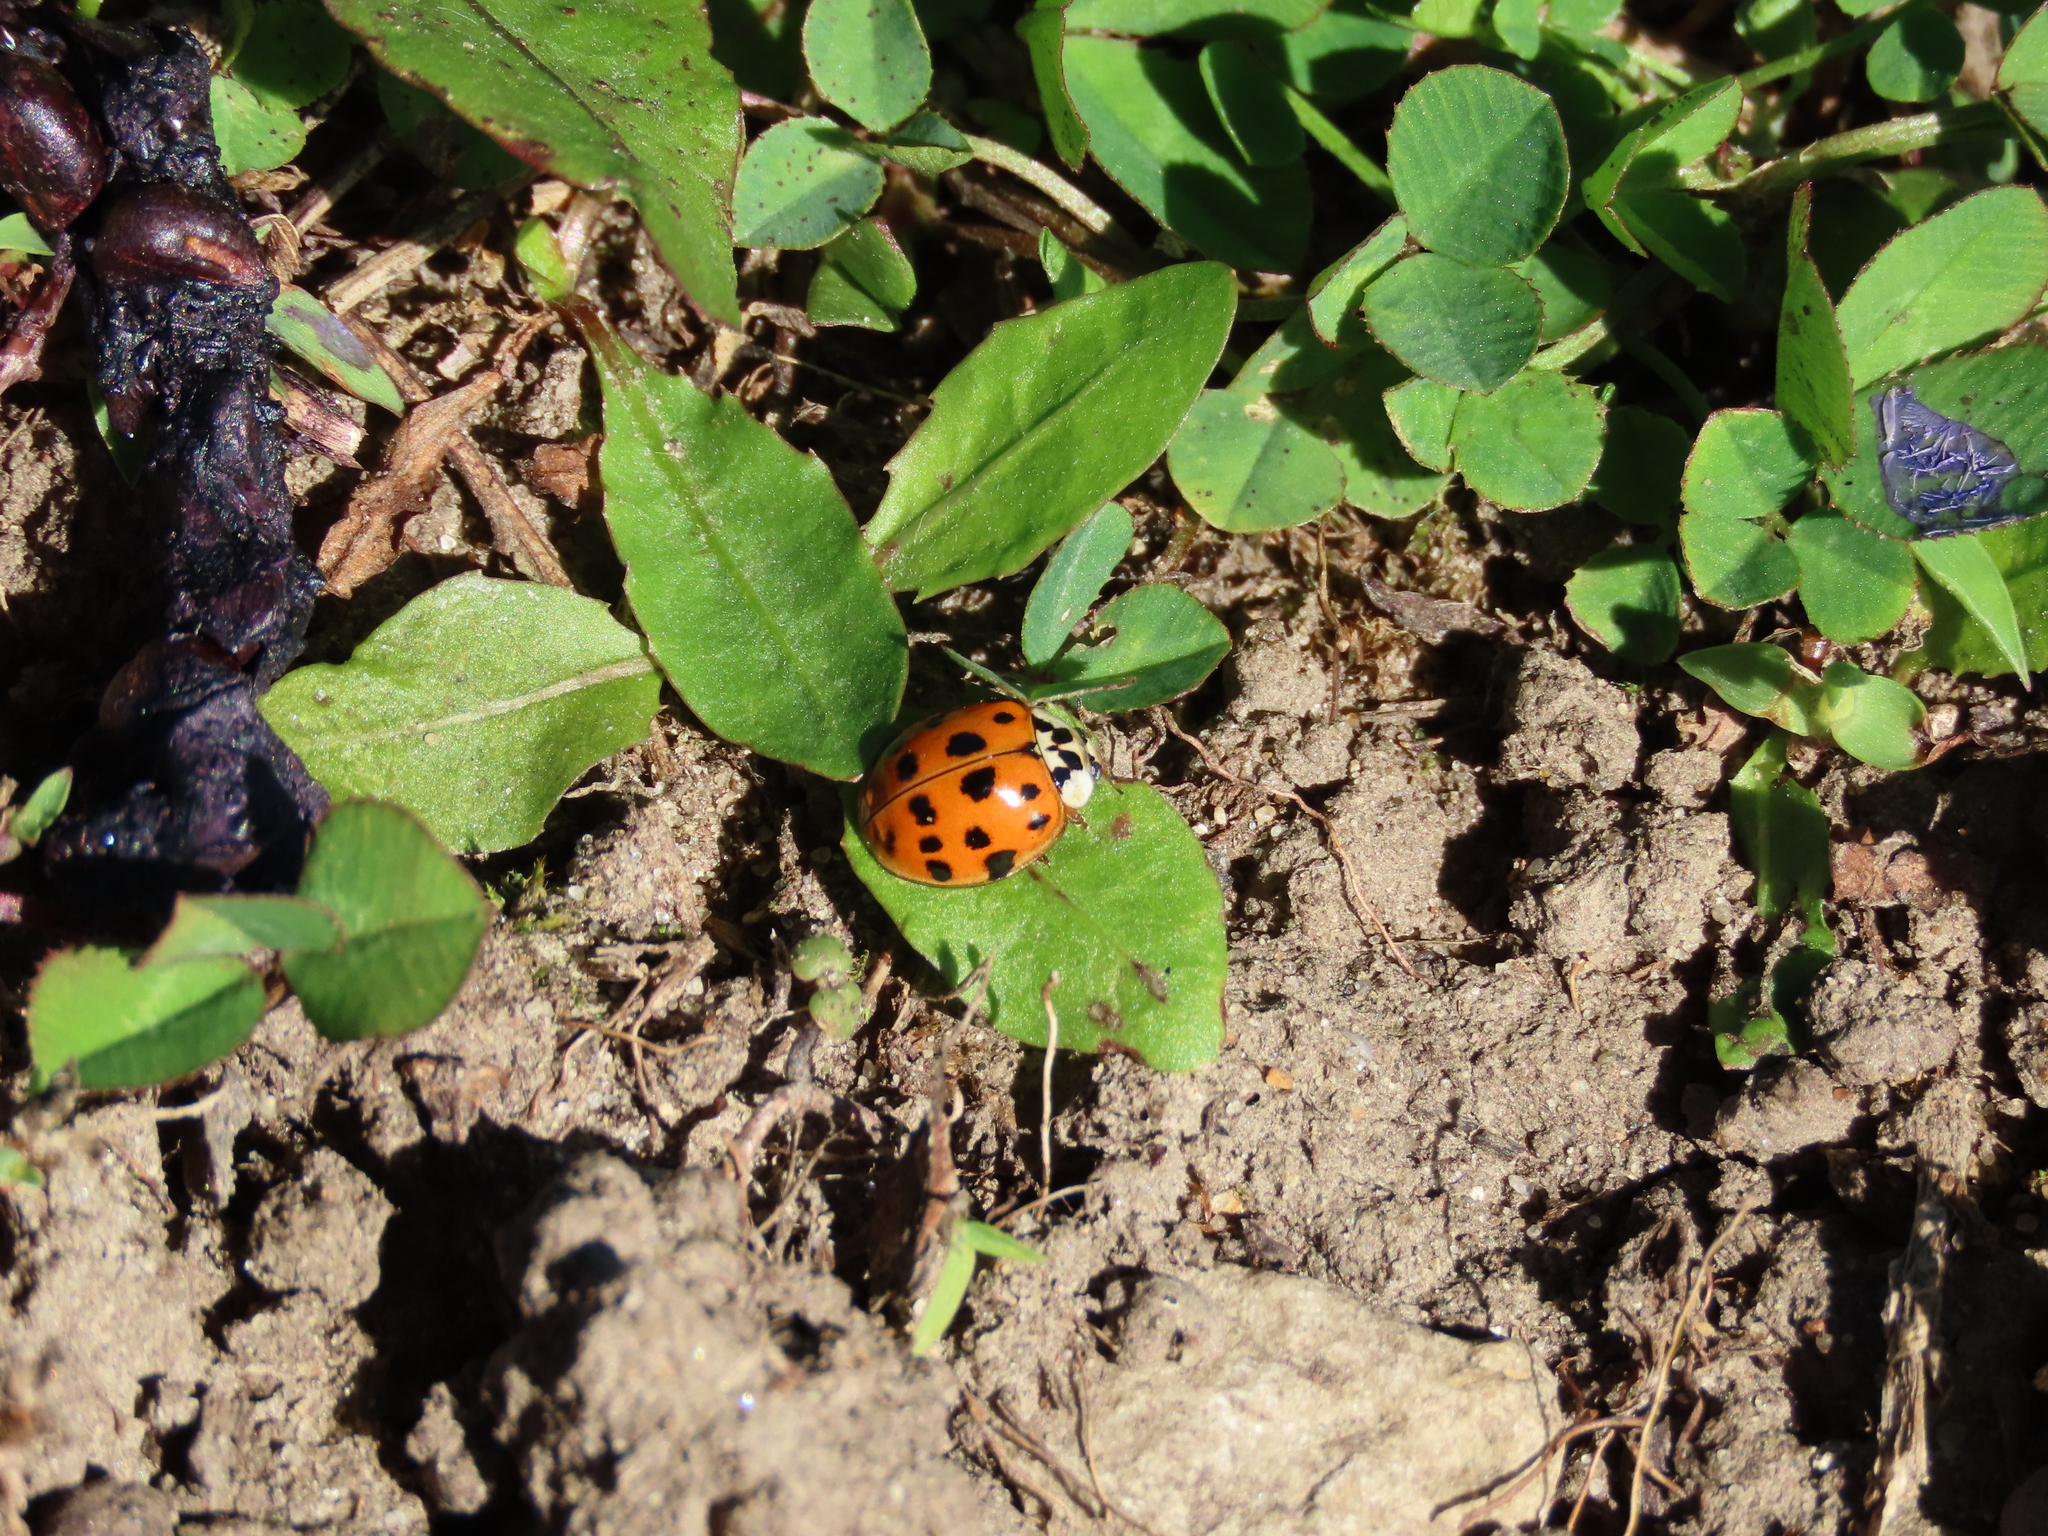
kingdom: Animalia
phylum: Arthropoda
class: Insecta
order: Coleoptera
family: Coccinellidae
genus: Harmonia
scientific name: Harmonia axyridis
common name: Harlequin ladybird
